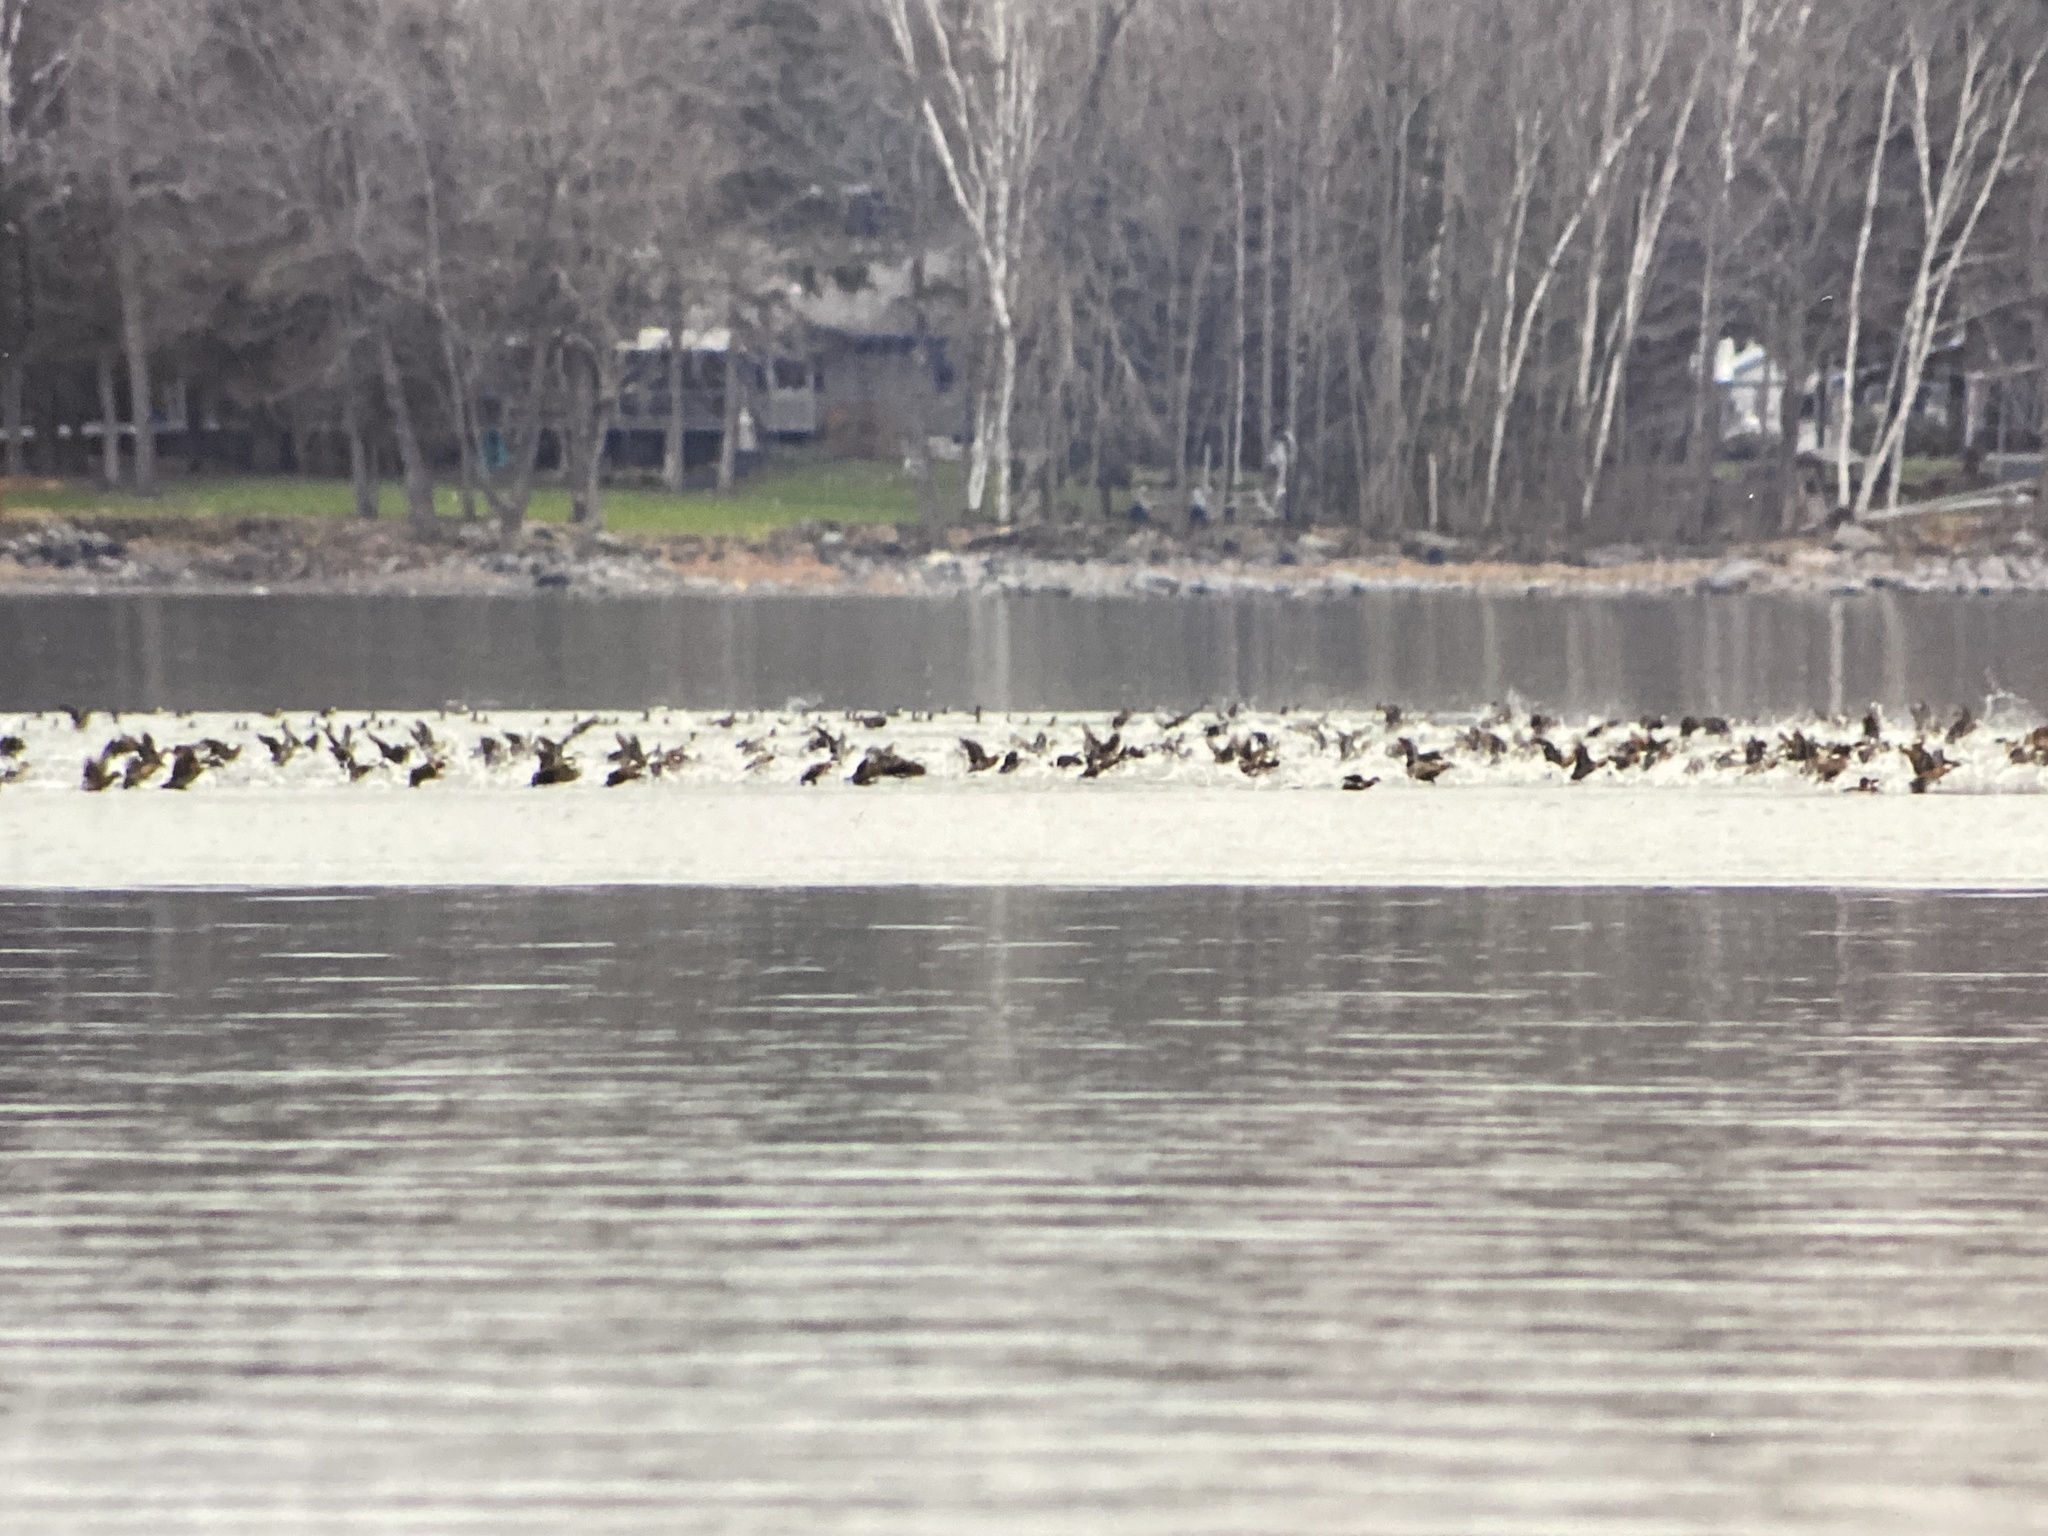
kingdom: Animalia
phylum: Chordata
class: Aves
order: Anseriformes
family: Anatidae
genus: Oxyura
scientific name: Oxyura jamaicensis
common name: Ruddy duck
